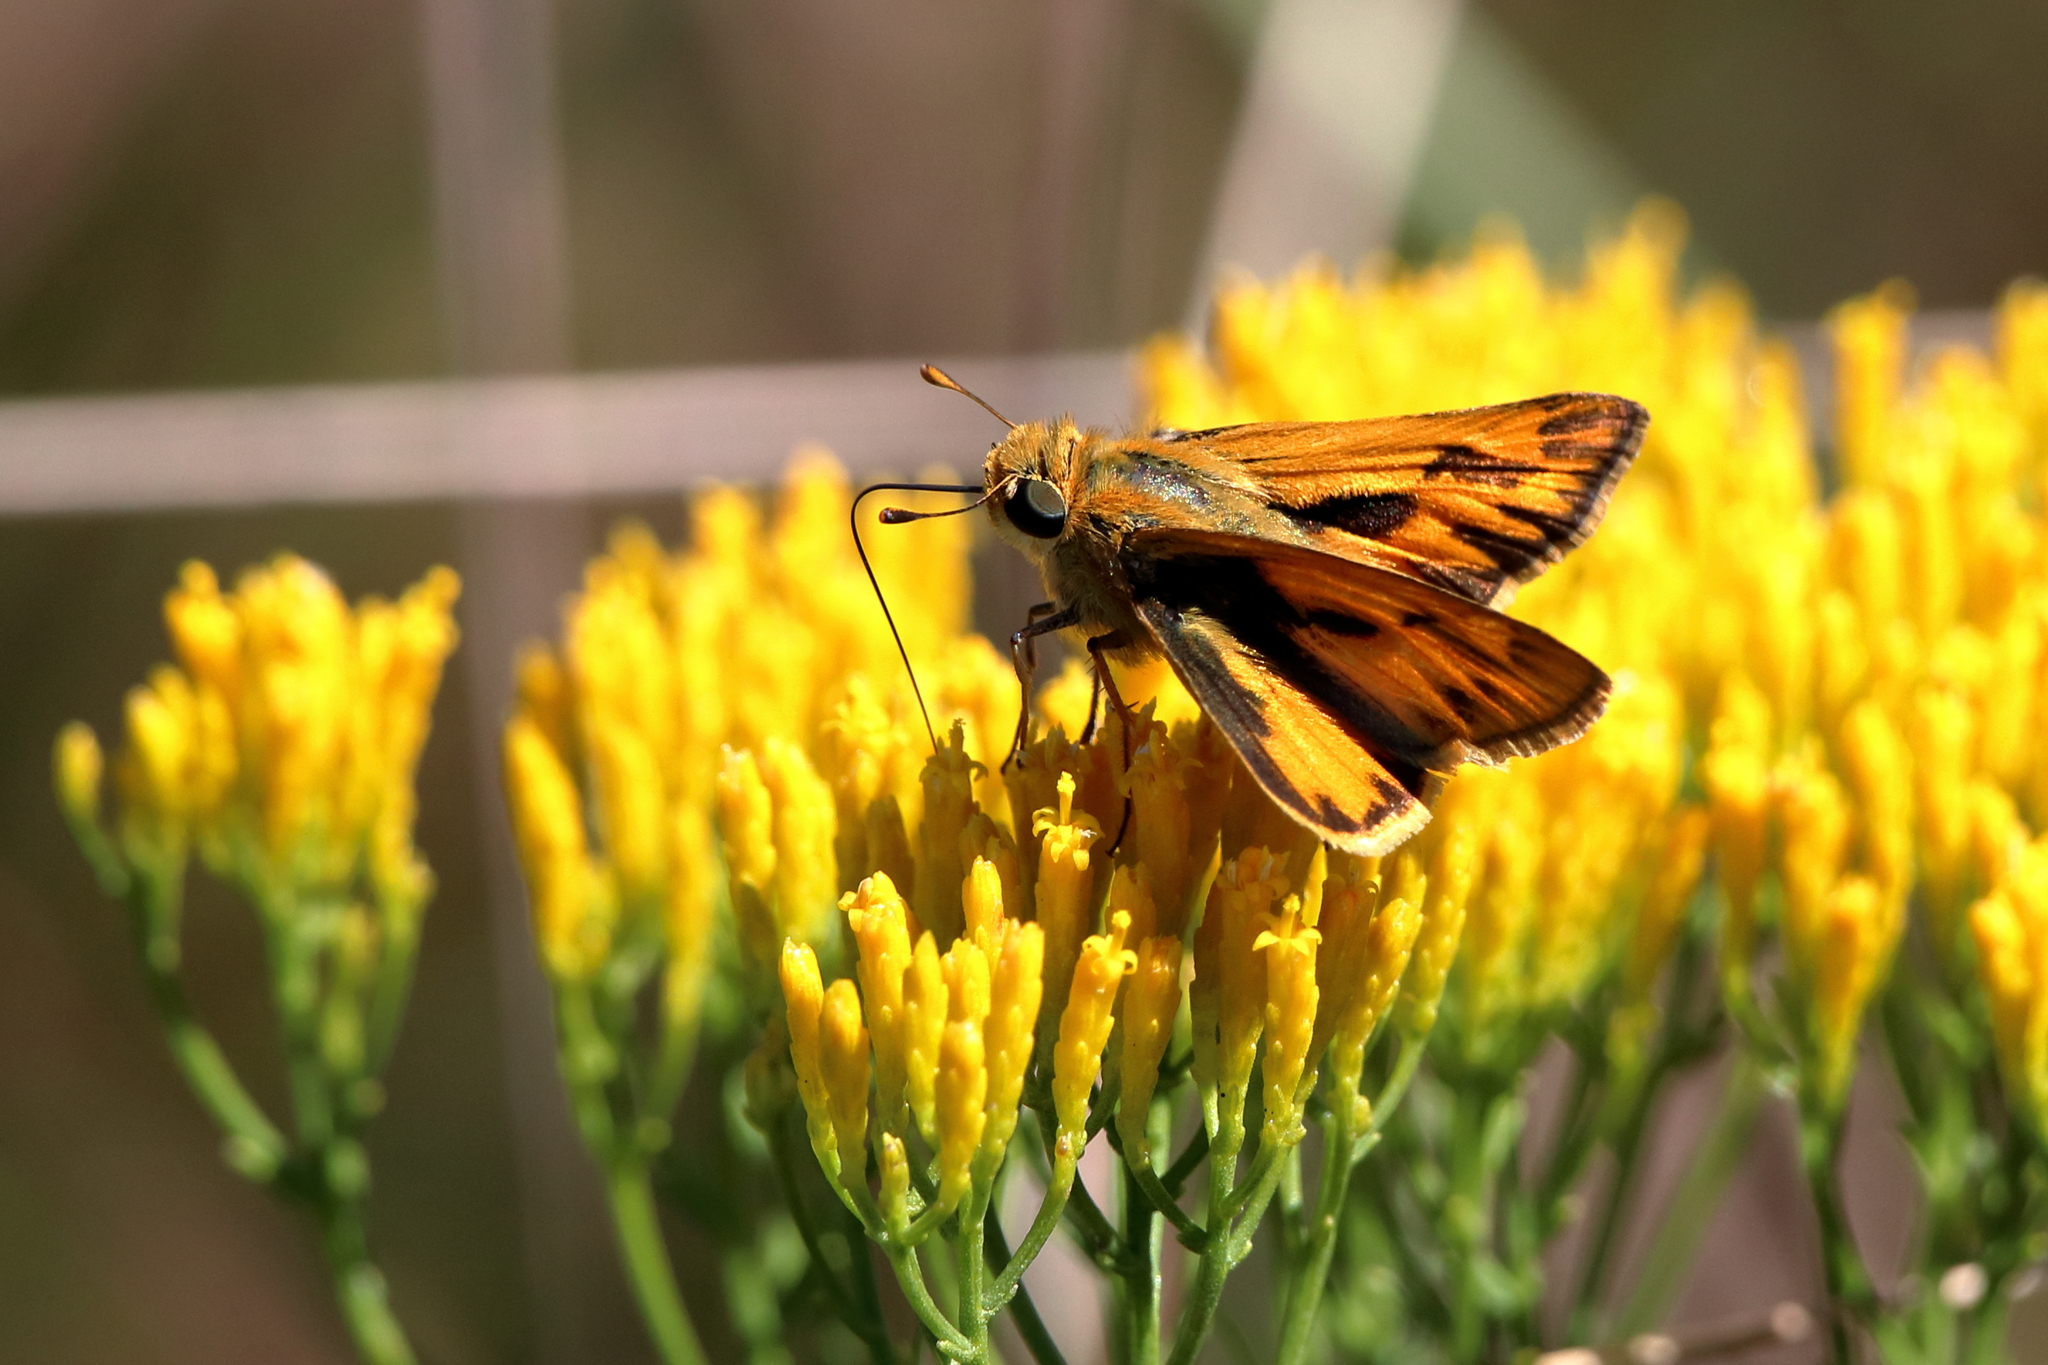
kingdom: Animalia
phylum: Arthropoda
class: Insecta
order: Lepidoptera
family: Hesperiidae
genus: Hylephila
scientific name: Hylephila phyleus
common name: Fiery skipper
